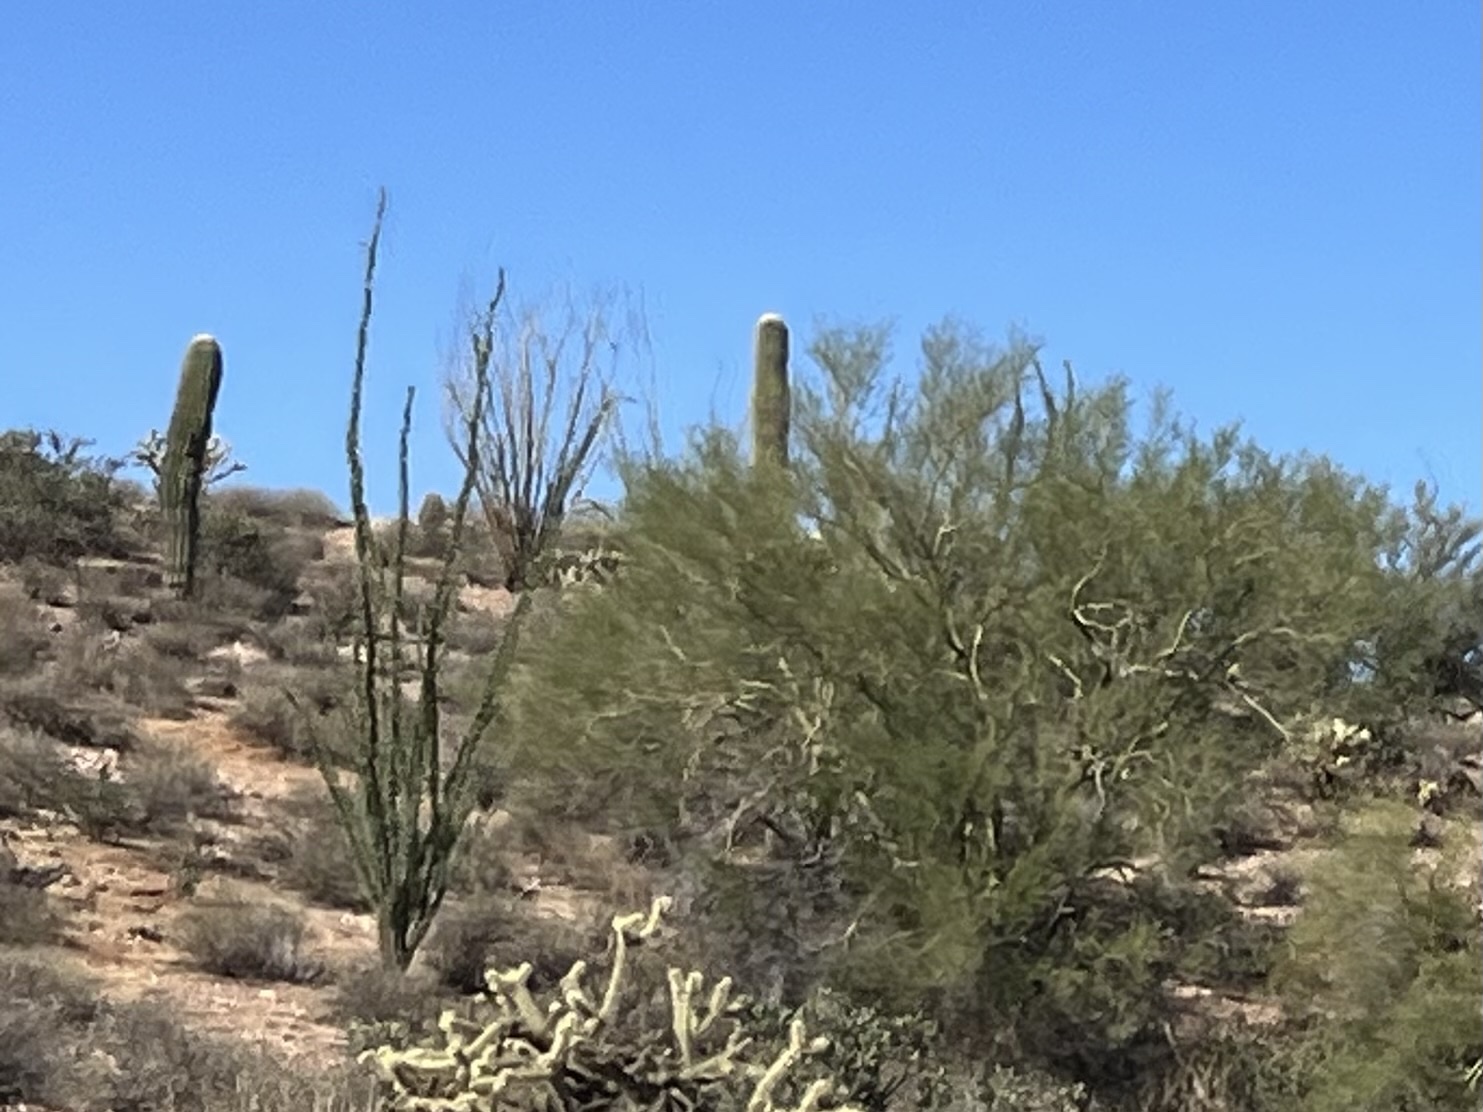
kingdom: Plantae
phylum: Tracheophyta
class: Magnoliopsida
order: Ericales
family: Fouquieriaceae
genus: Fouquieria
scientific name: Fouquieria splendens
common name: Vine-cactus
